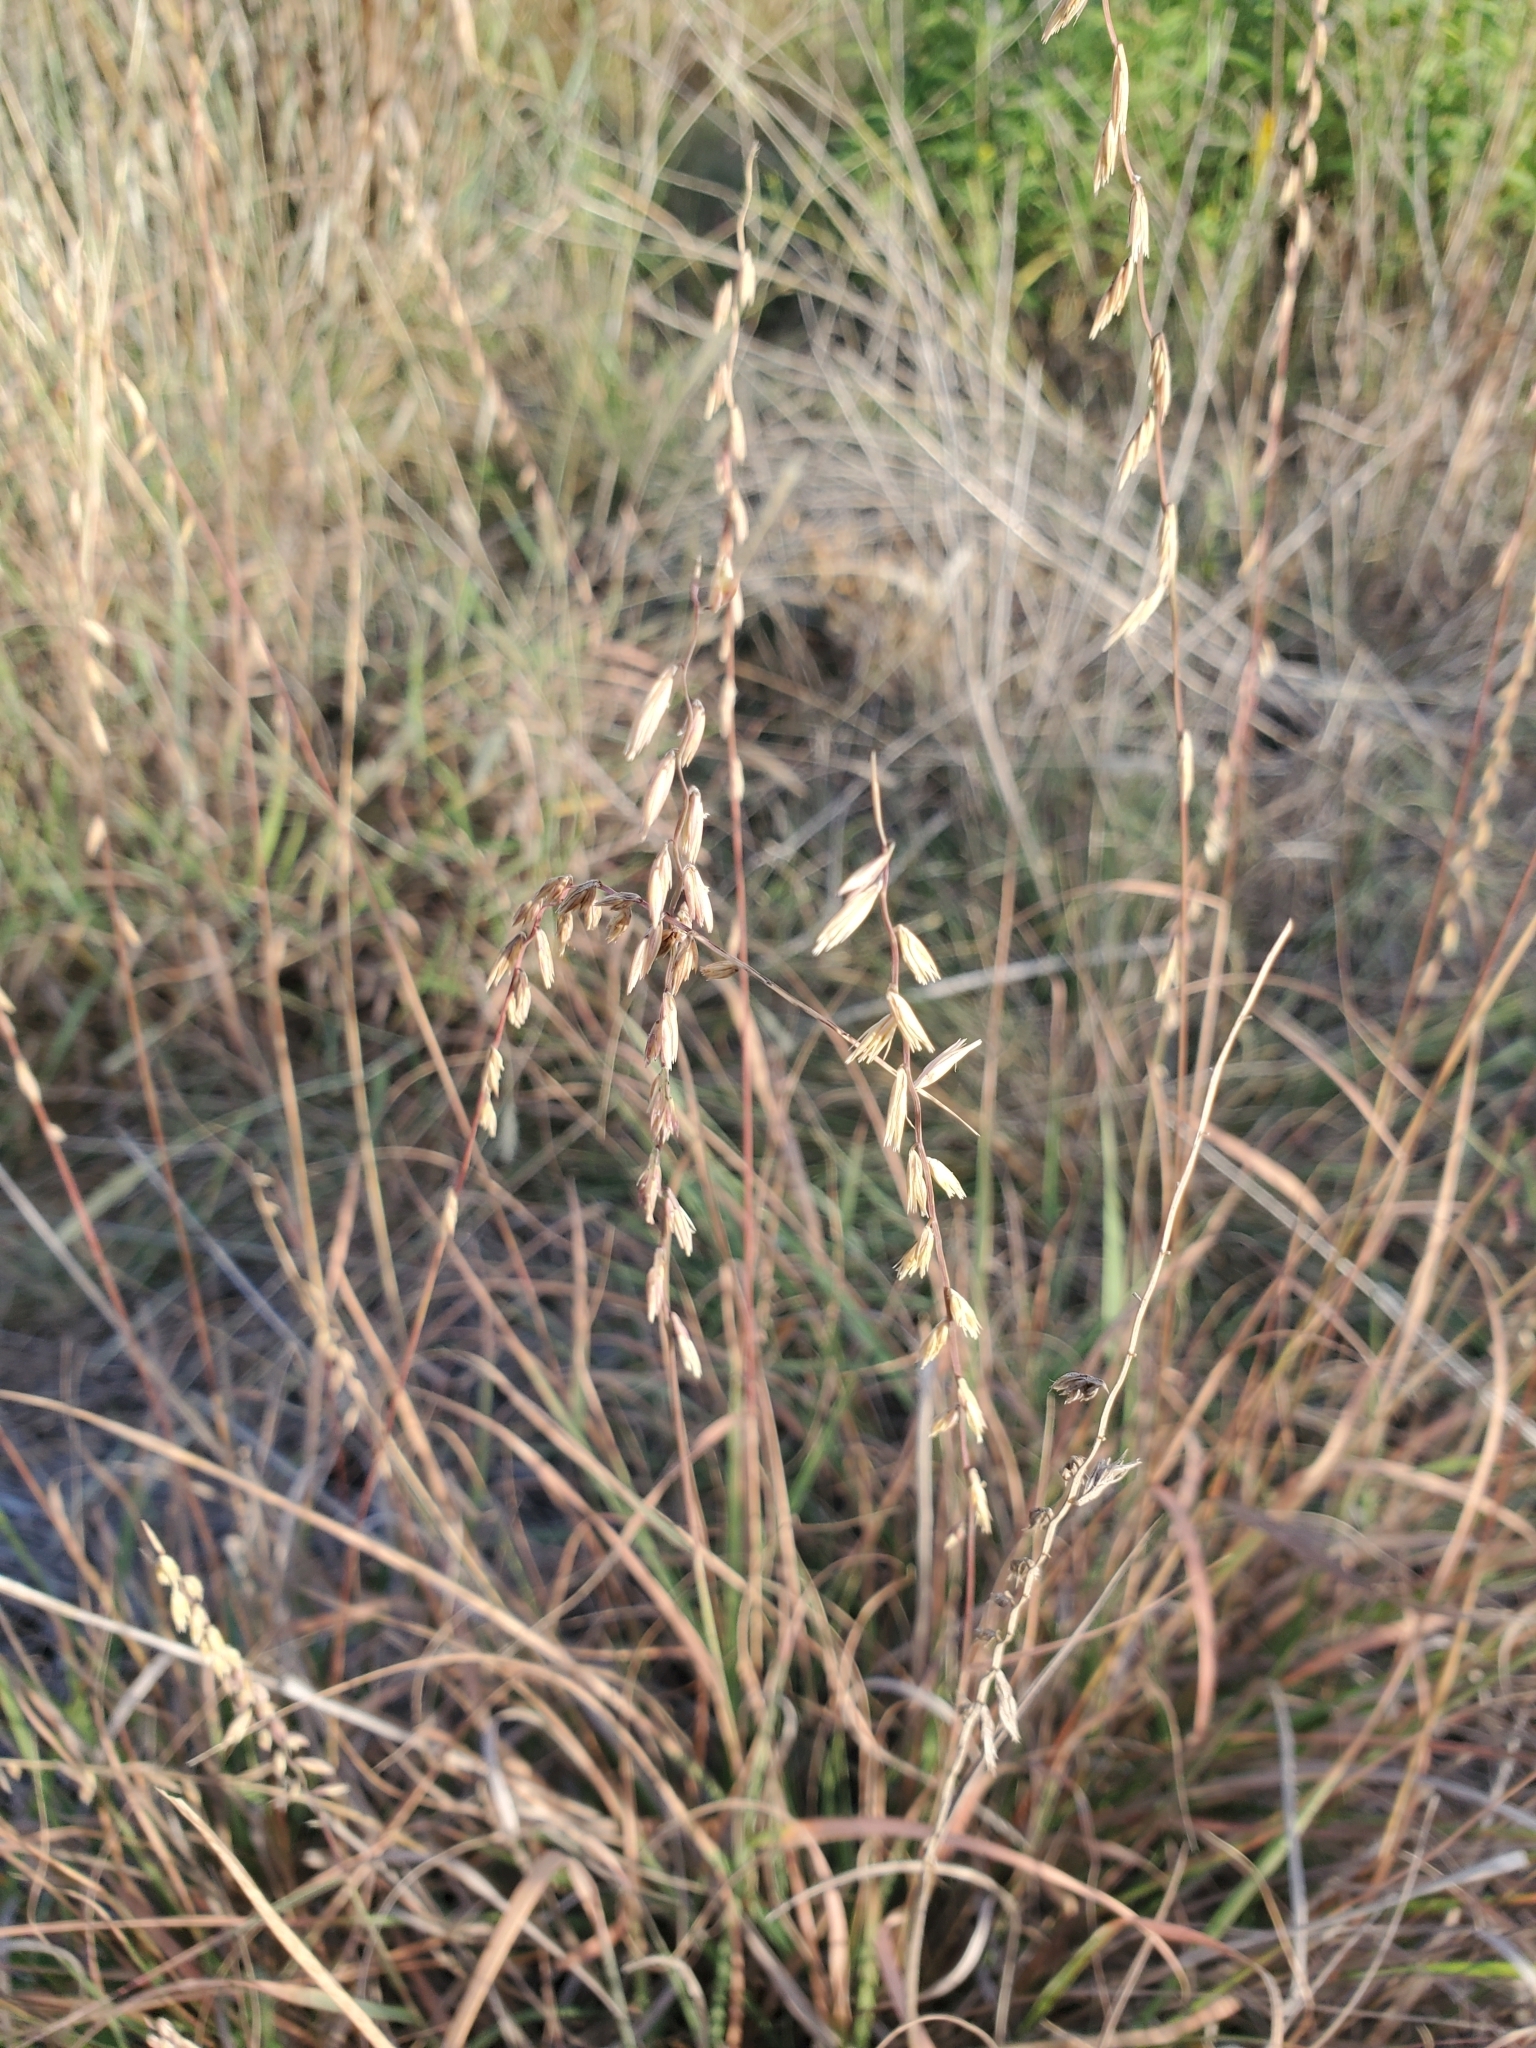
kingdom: Plantae
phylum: Tracheophyta
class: Liliopsida
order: Poales
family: Poaceae
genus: Bouteloua
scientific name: Bouteloua curtipendula
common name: Side-oats grama
